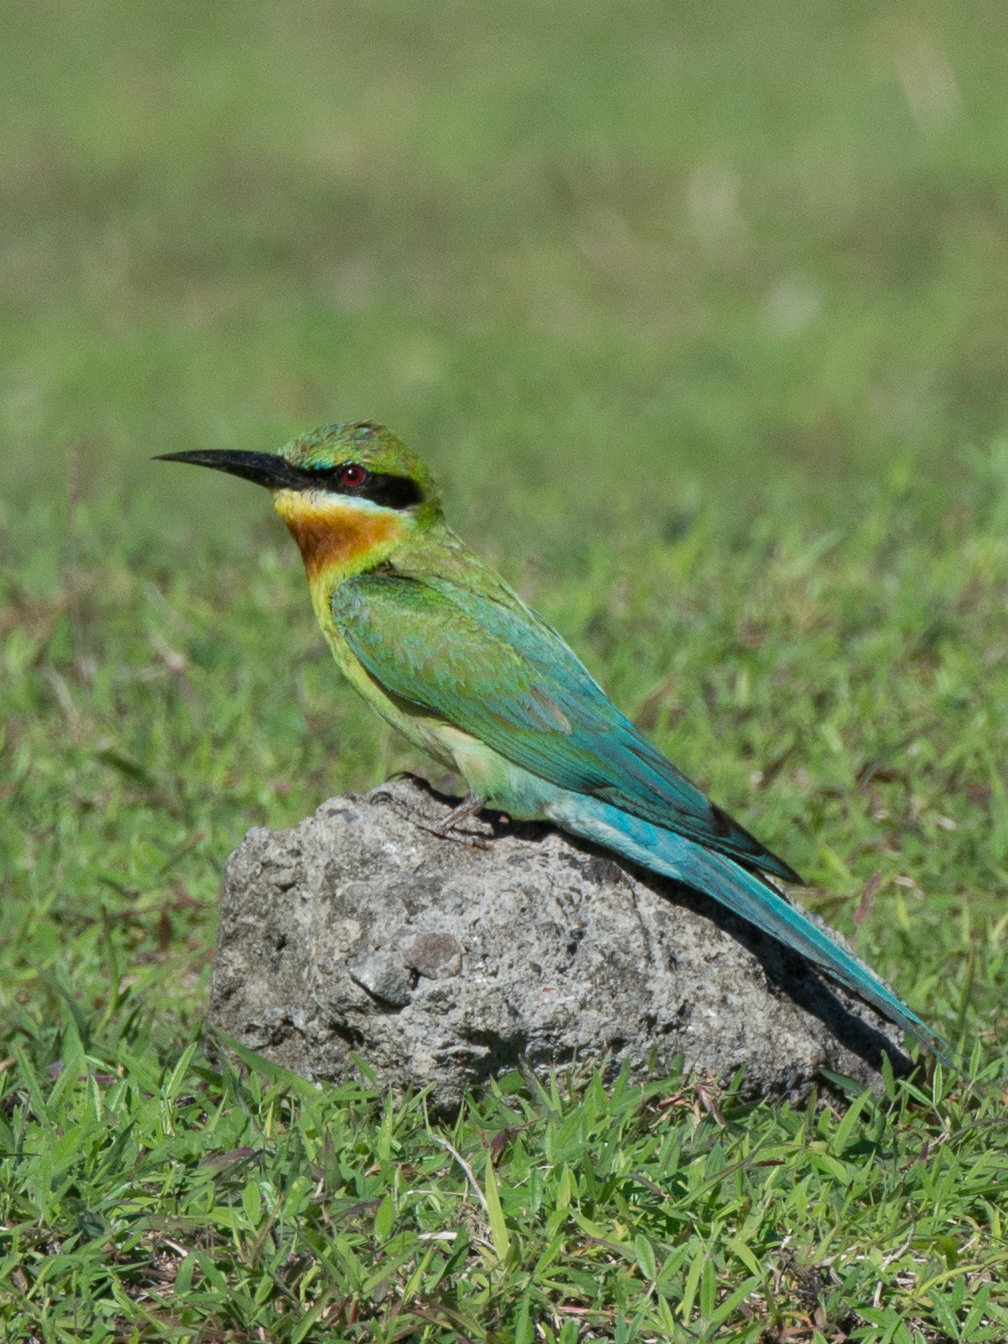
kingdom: Animalia
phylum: Chordata
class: Aves
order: Coraciiformes
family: Meropidae
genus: Merops
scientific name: Merops philippinus
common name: Blue-tailed bee-eater
